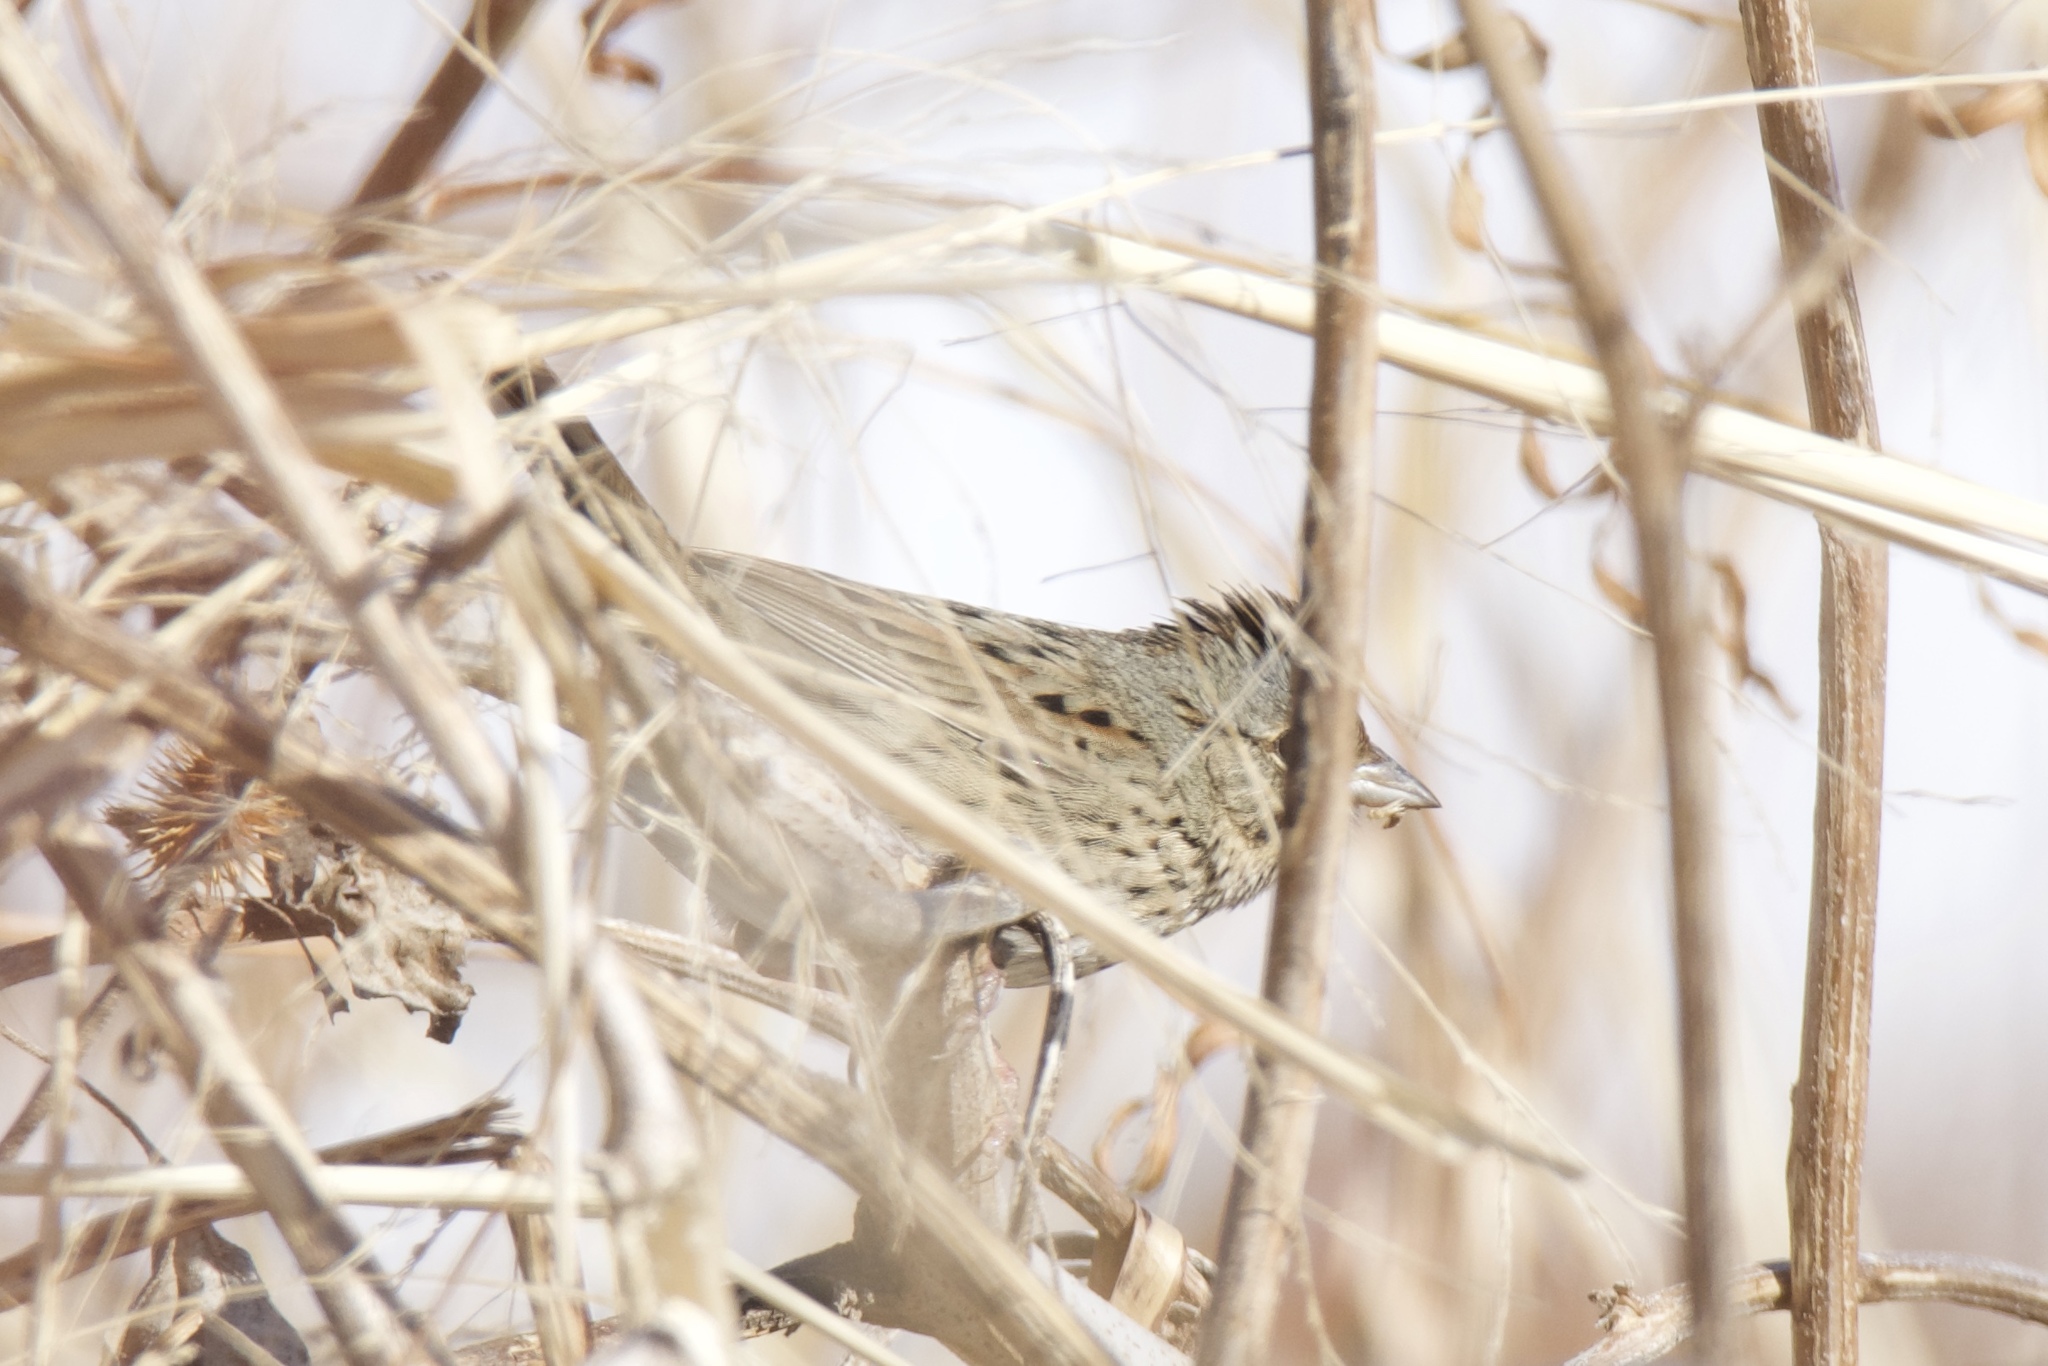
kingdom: Animalia
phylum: Chordata
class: Aves
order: Passeriformes
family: Passerellidae
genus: Melospiza
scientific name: Melospiza lincolnii
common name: Lincoln's sparrow
